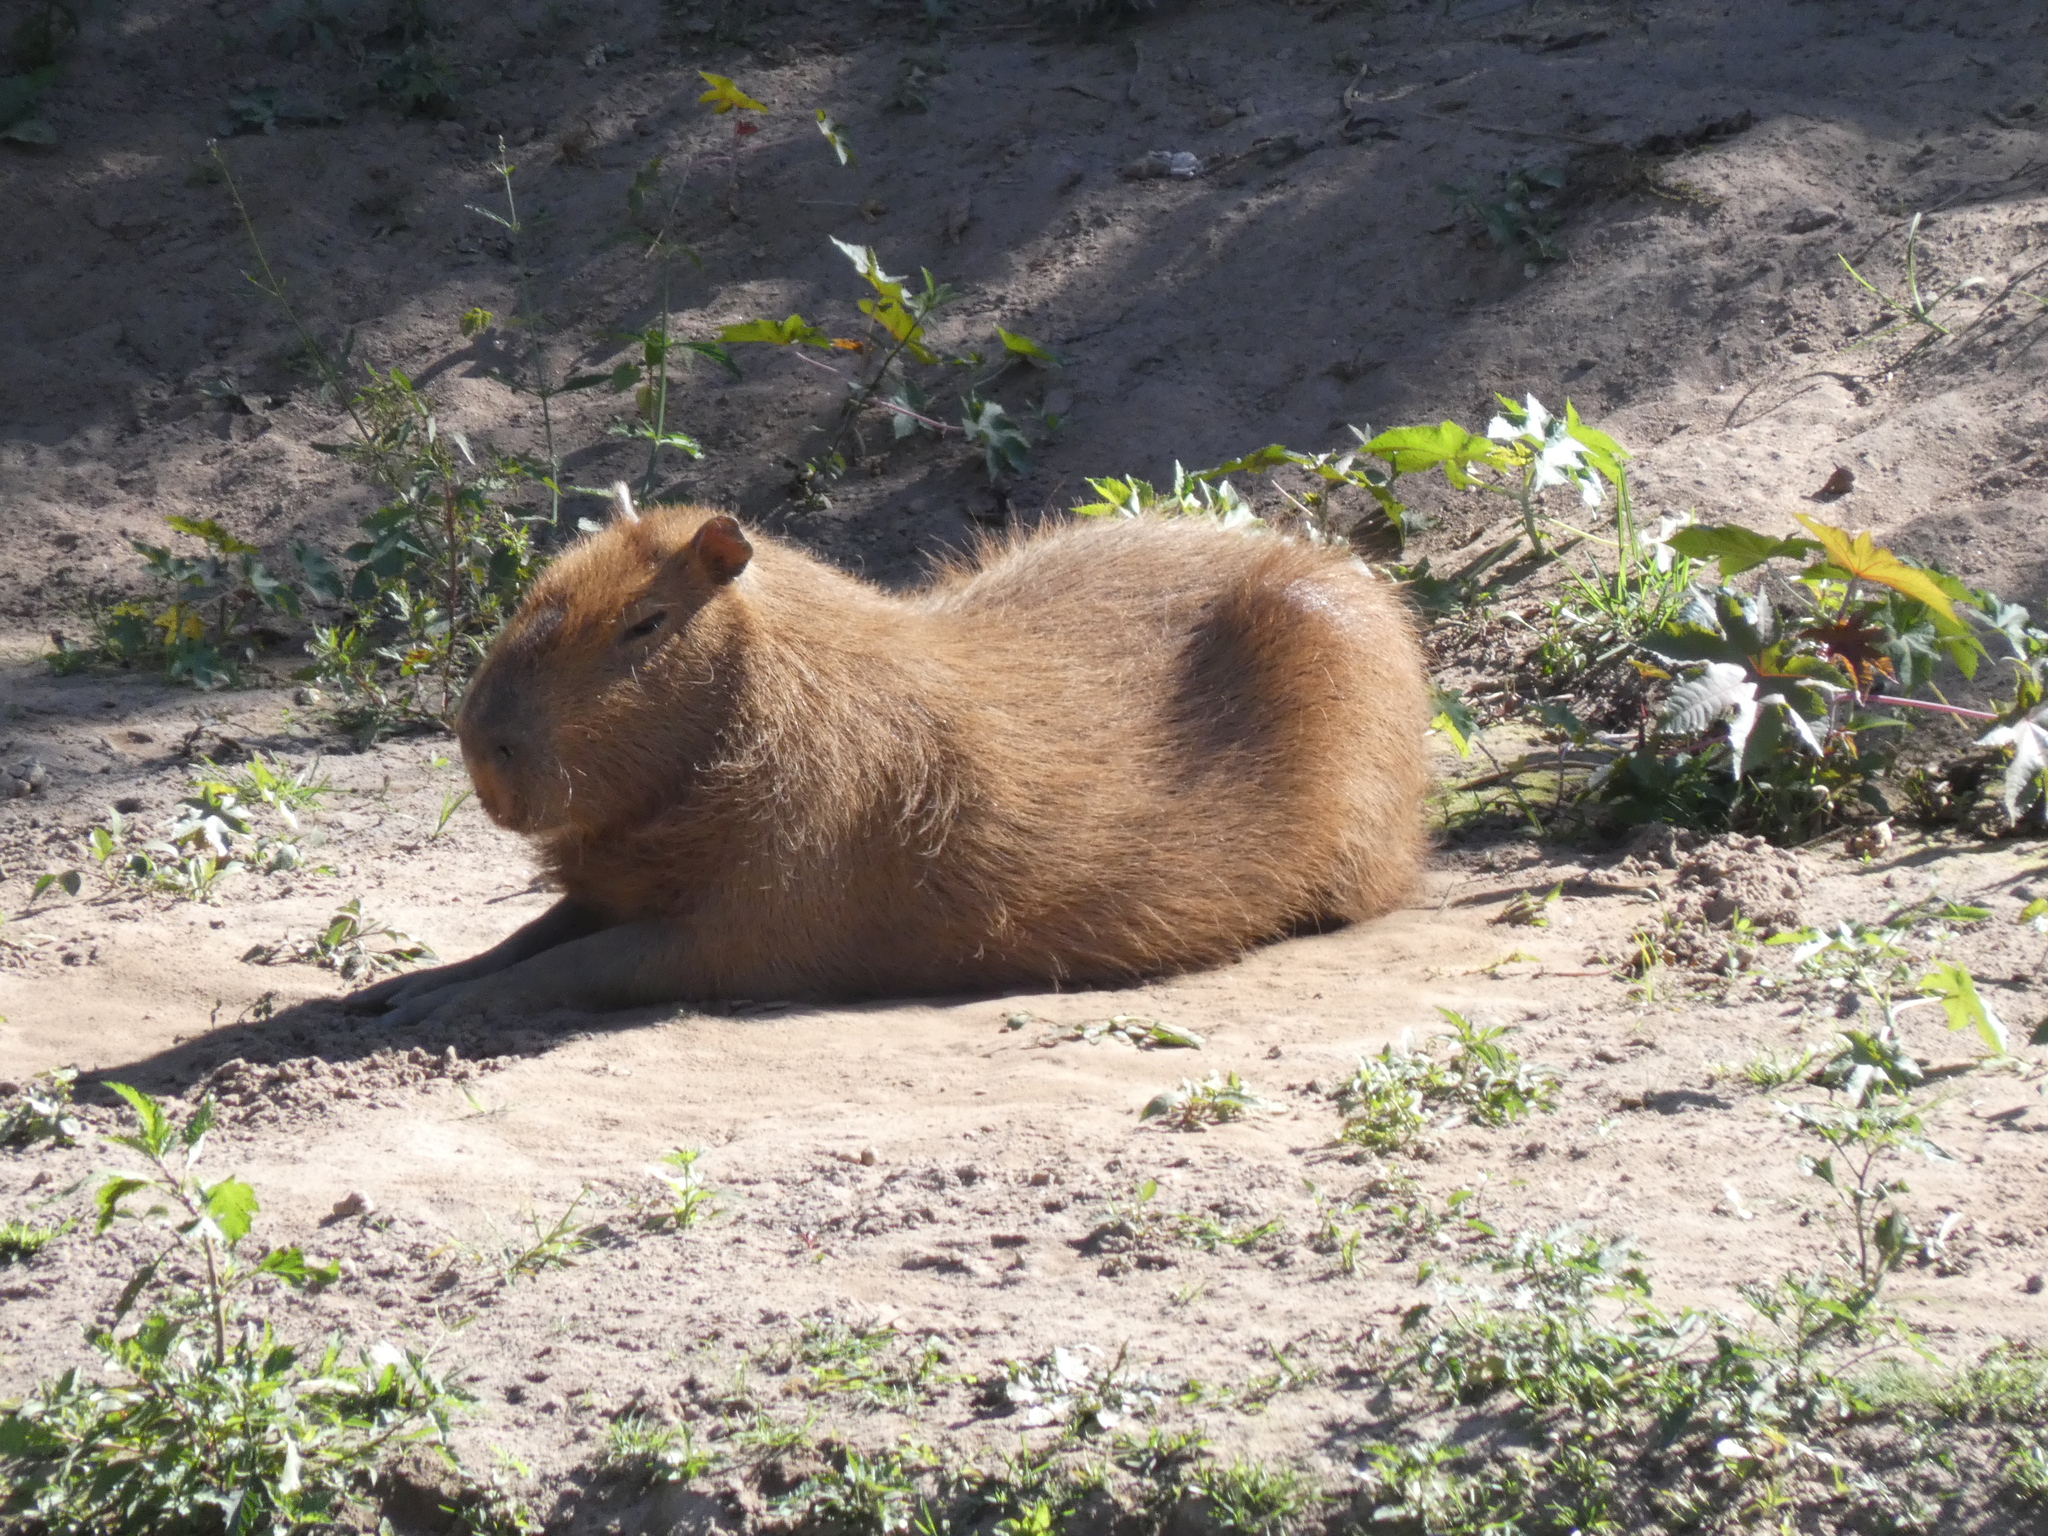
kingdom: Animalia
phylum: Chordata
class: Mammalia
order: Rodentia
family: Caviidae
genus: Hydrochoerus
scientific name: Hydrochoerus hydrochaeris
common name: Capybara
